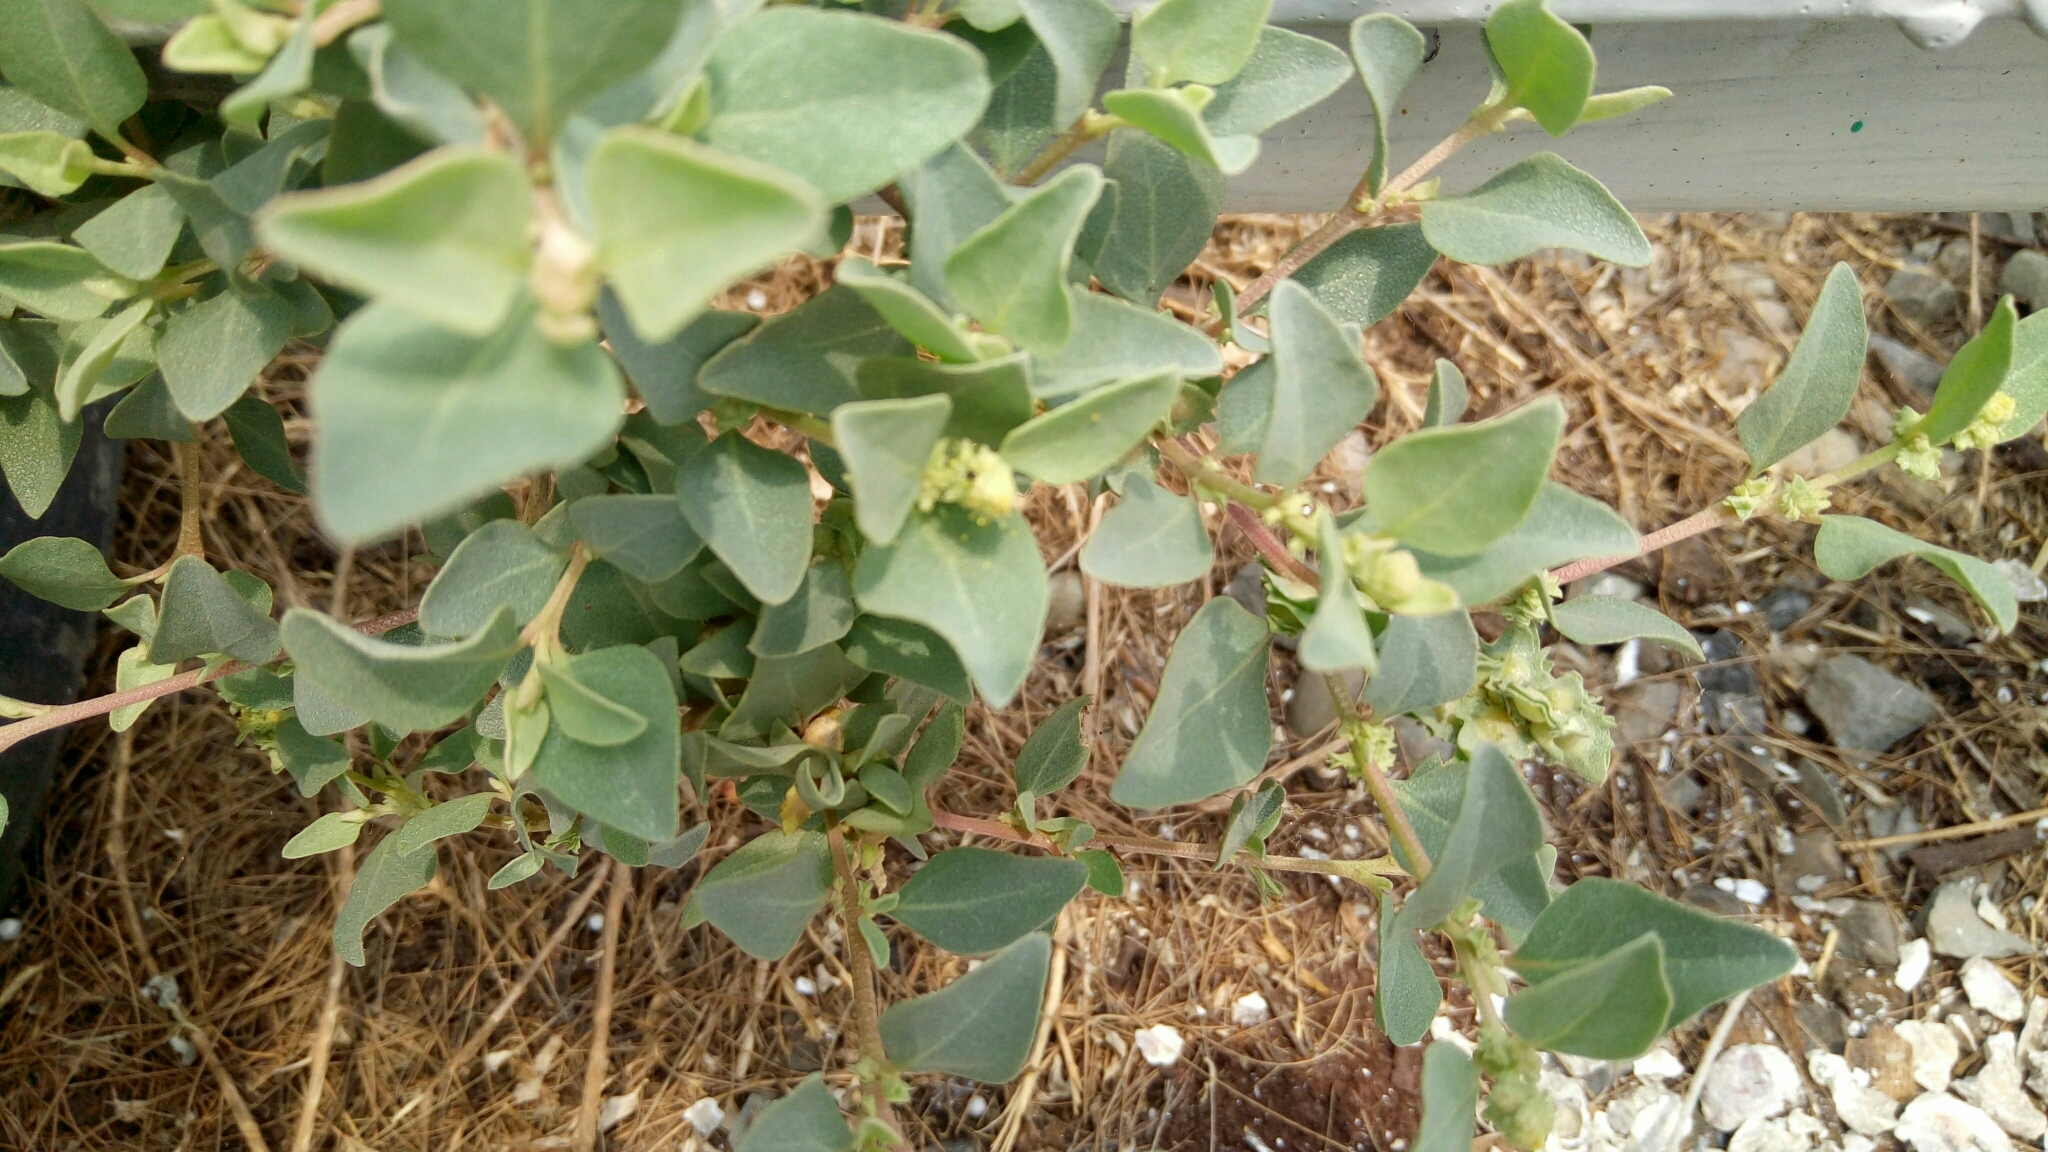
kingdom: Plantae
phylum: Tracheophyta
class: Magnoliopsida
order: Caryophyllales
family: Amaranthaceae
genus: Atriplex
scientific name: Atriplex maximowicziana
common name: Maximowicz's saltbush
